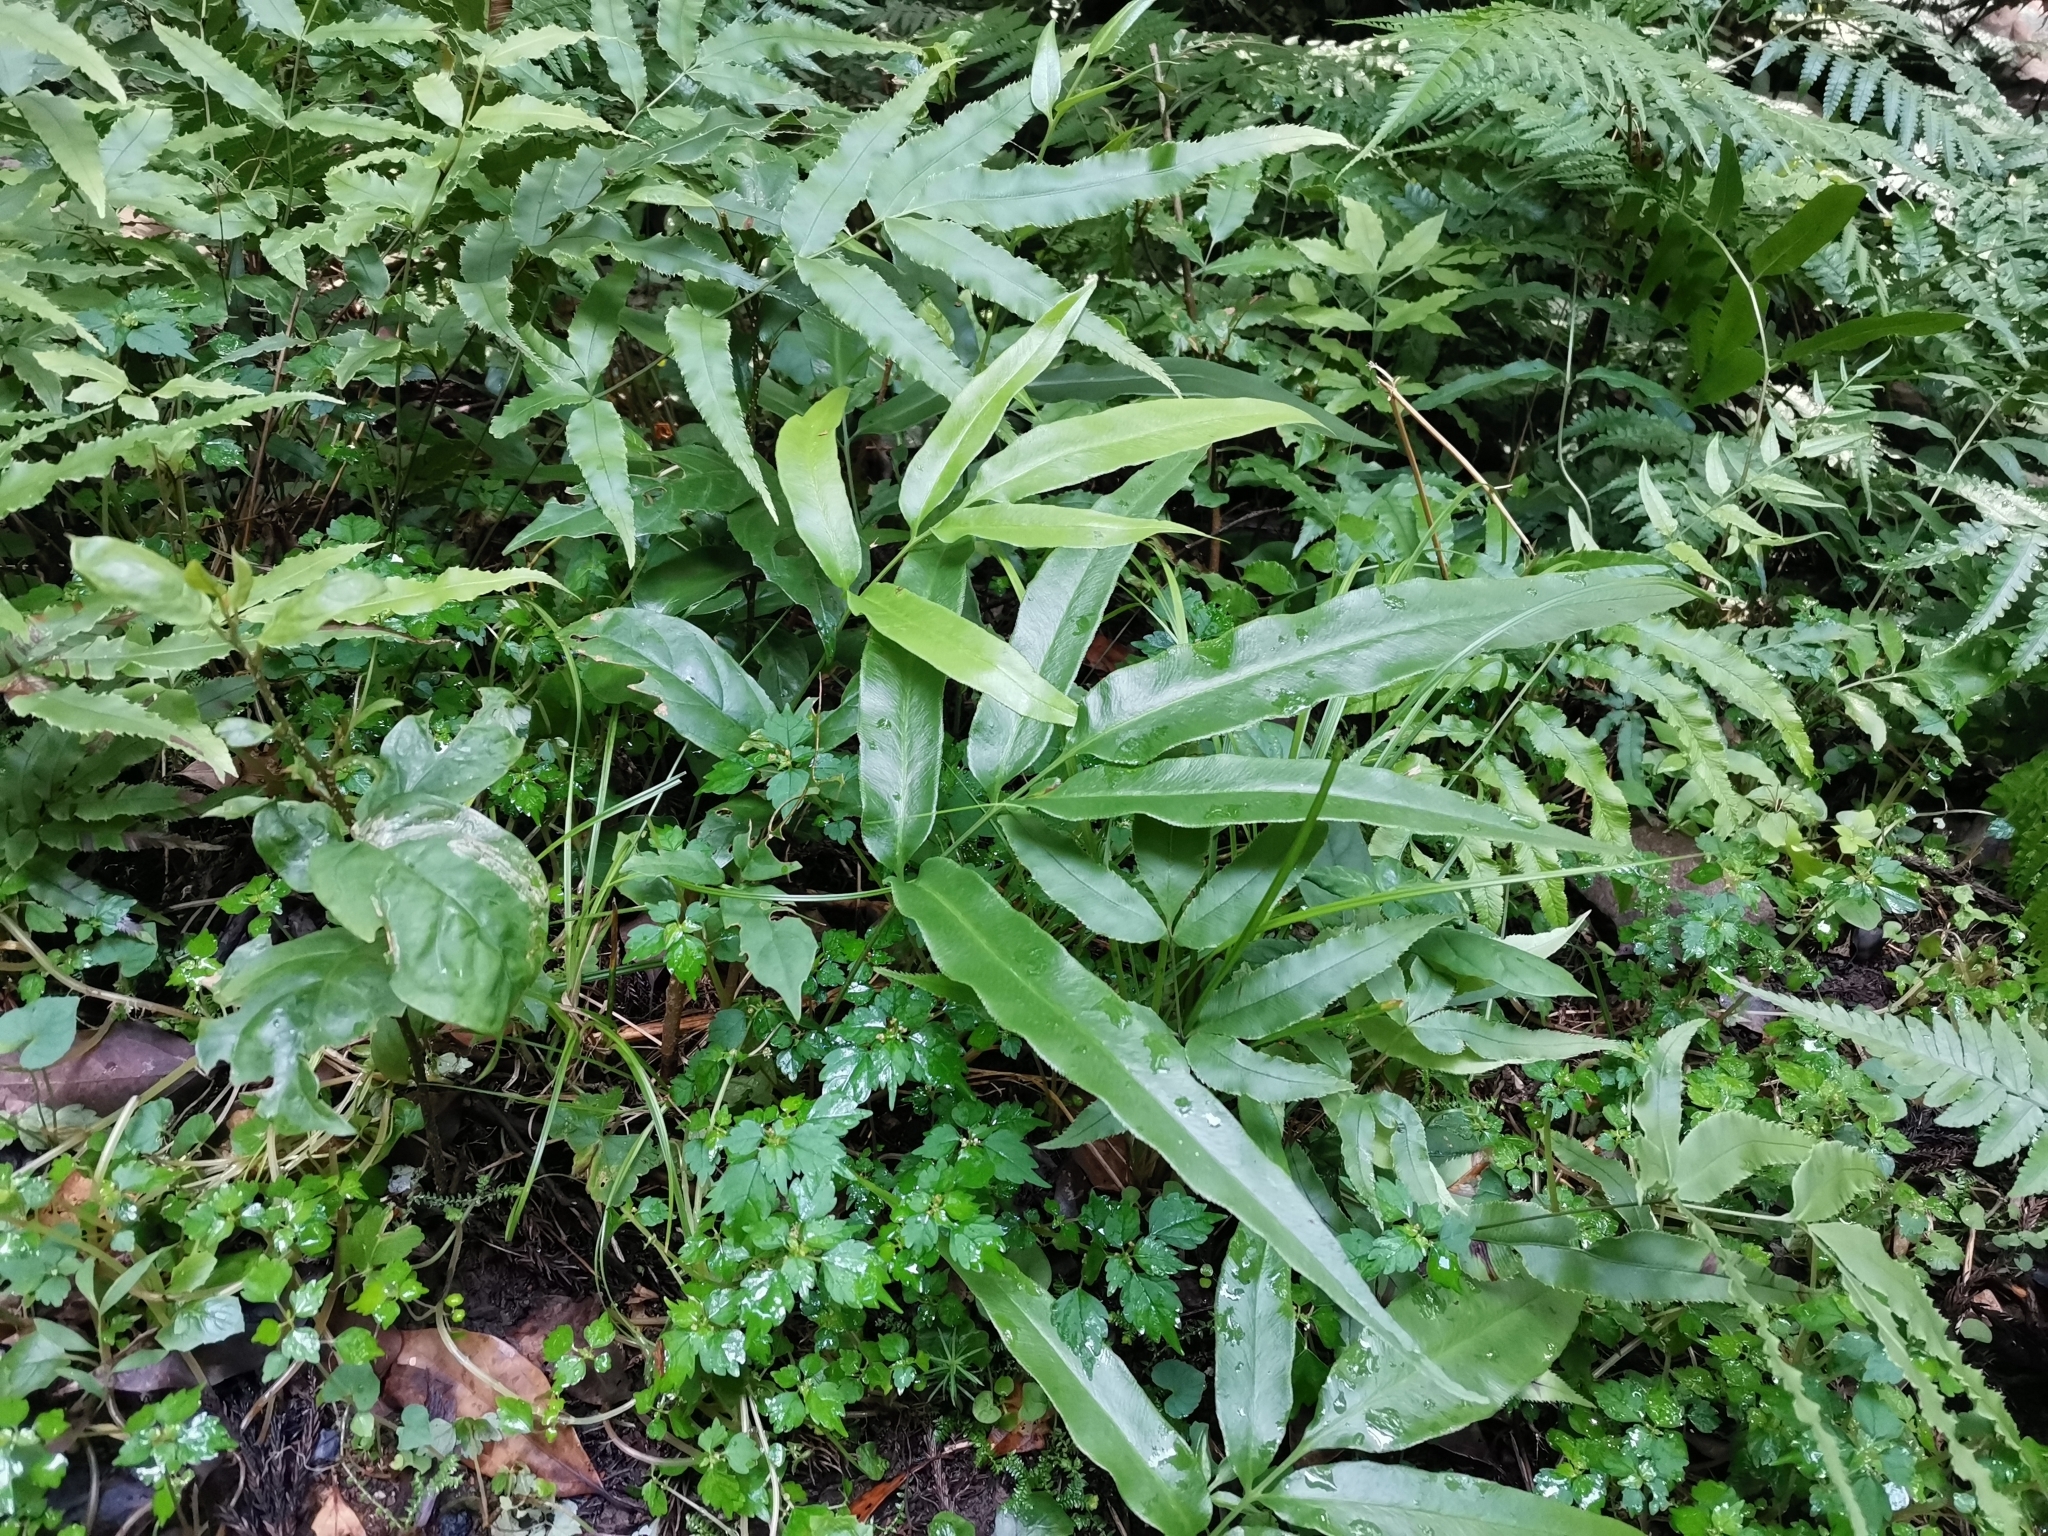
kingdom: Plantae
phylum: Tracheophyta
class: Polypodiopsida
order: Polypodiales
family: Pteridaceae
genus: Coniogramme
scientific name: Coniogramme japonica
